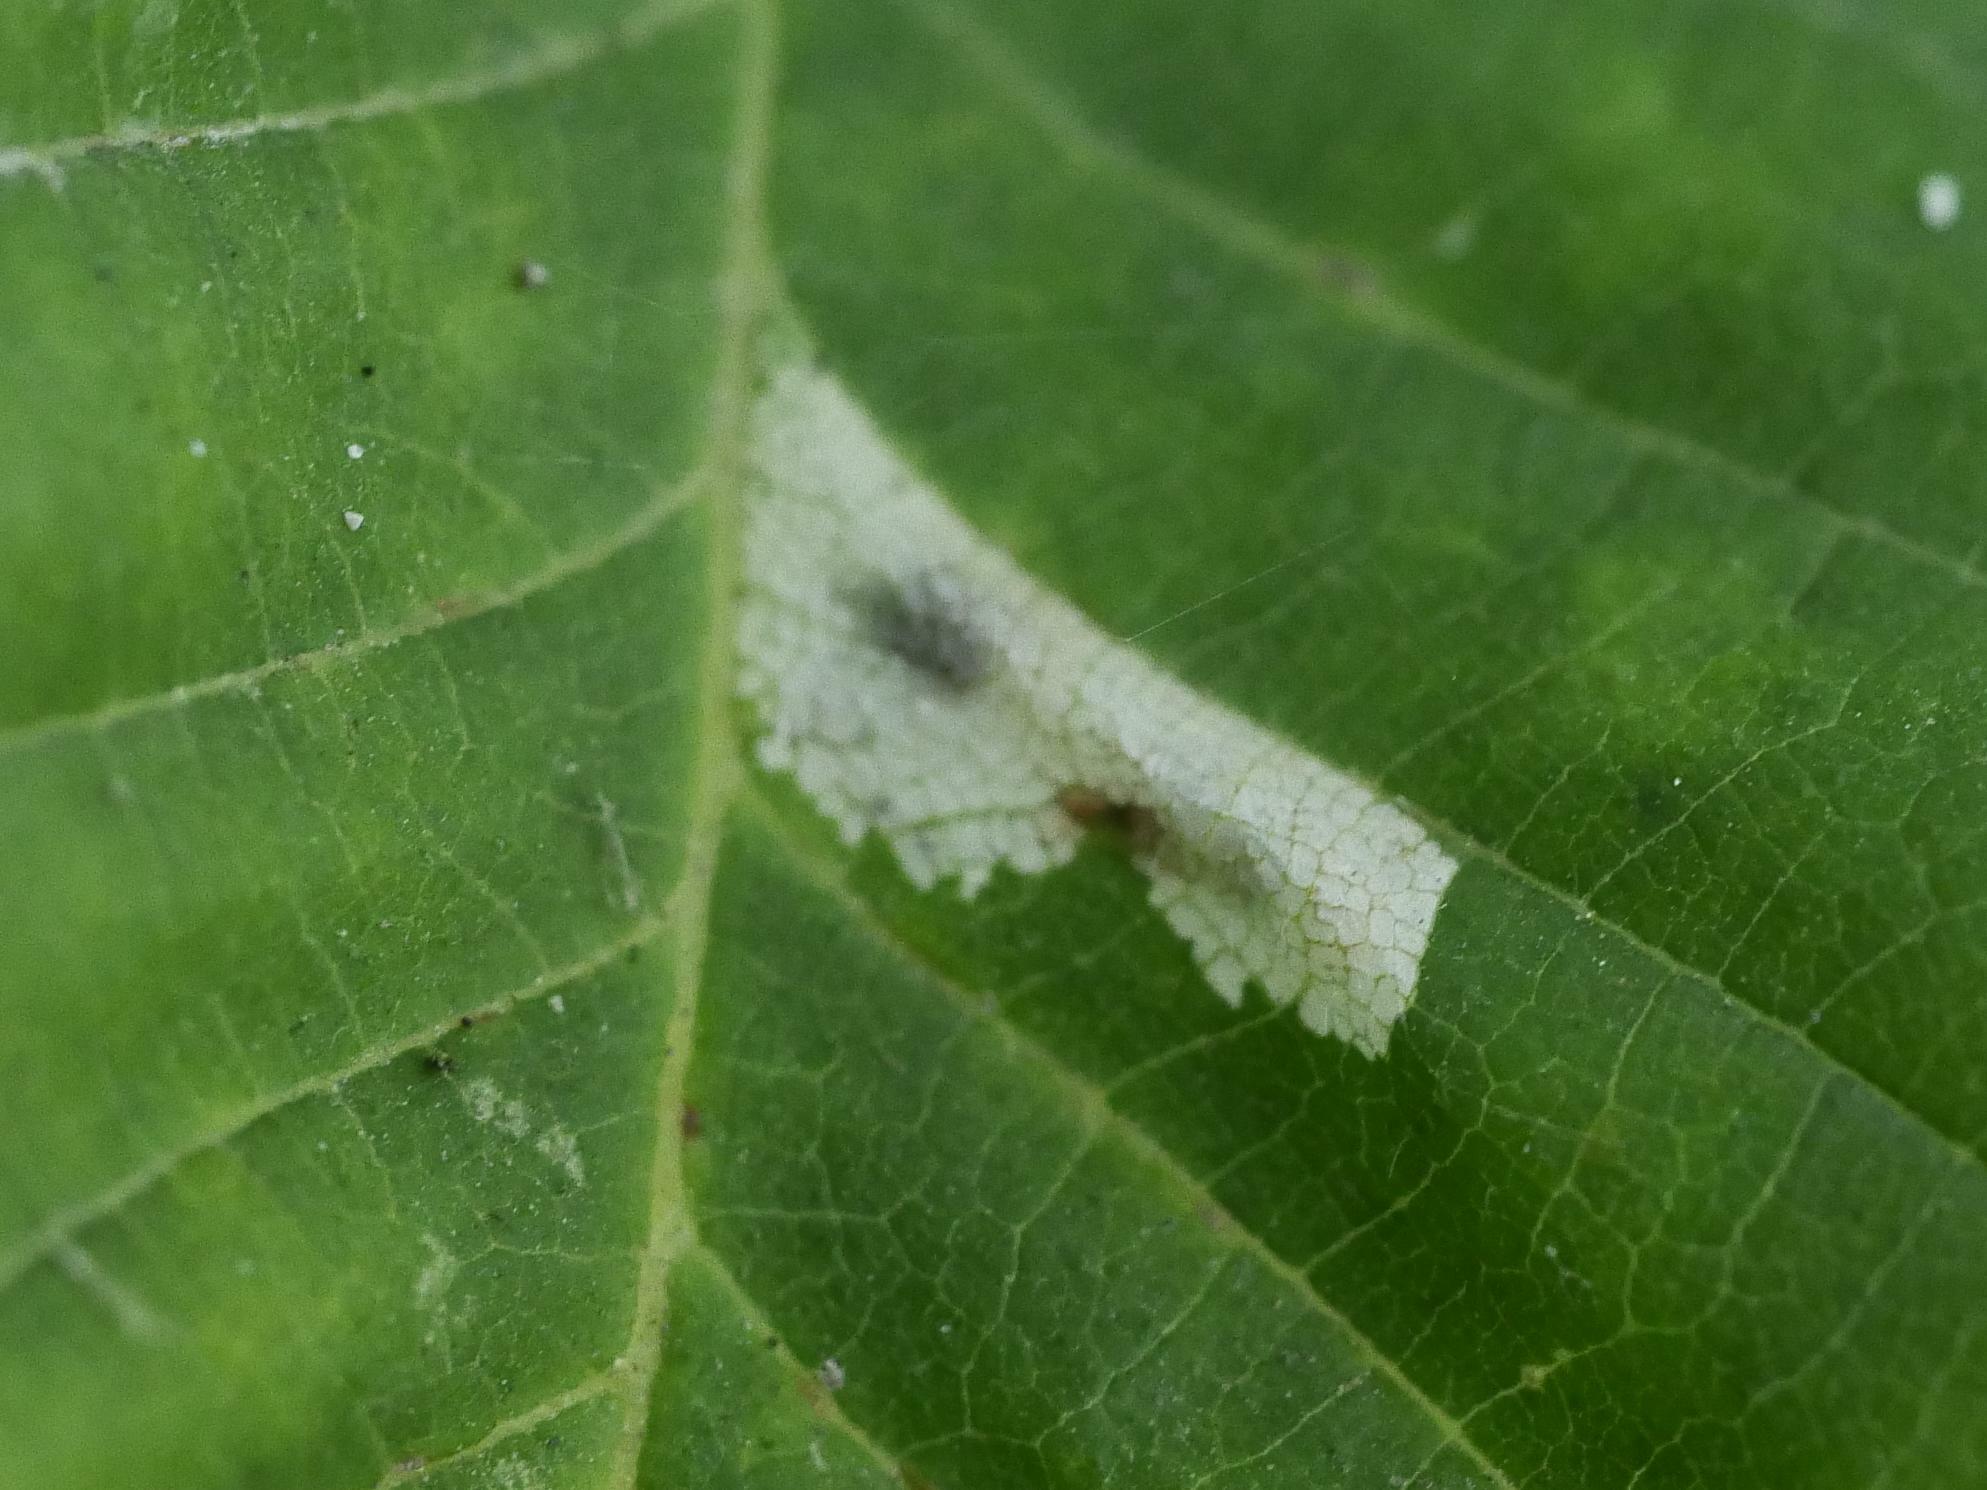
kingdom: Animalia
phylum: Arthropoda
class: Insecta
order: Lepidoptera
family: Gracillariidae
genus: Phyllonorycter
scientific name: Phyllonorycter issikii
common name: Linden midget
